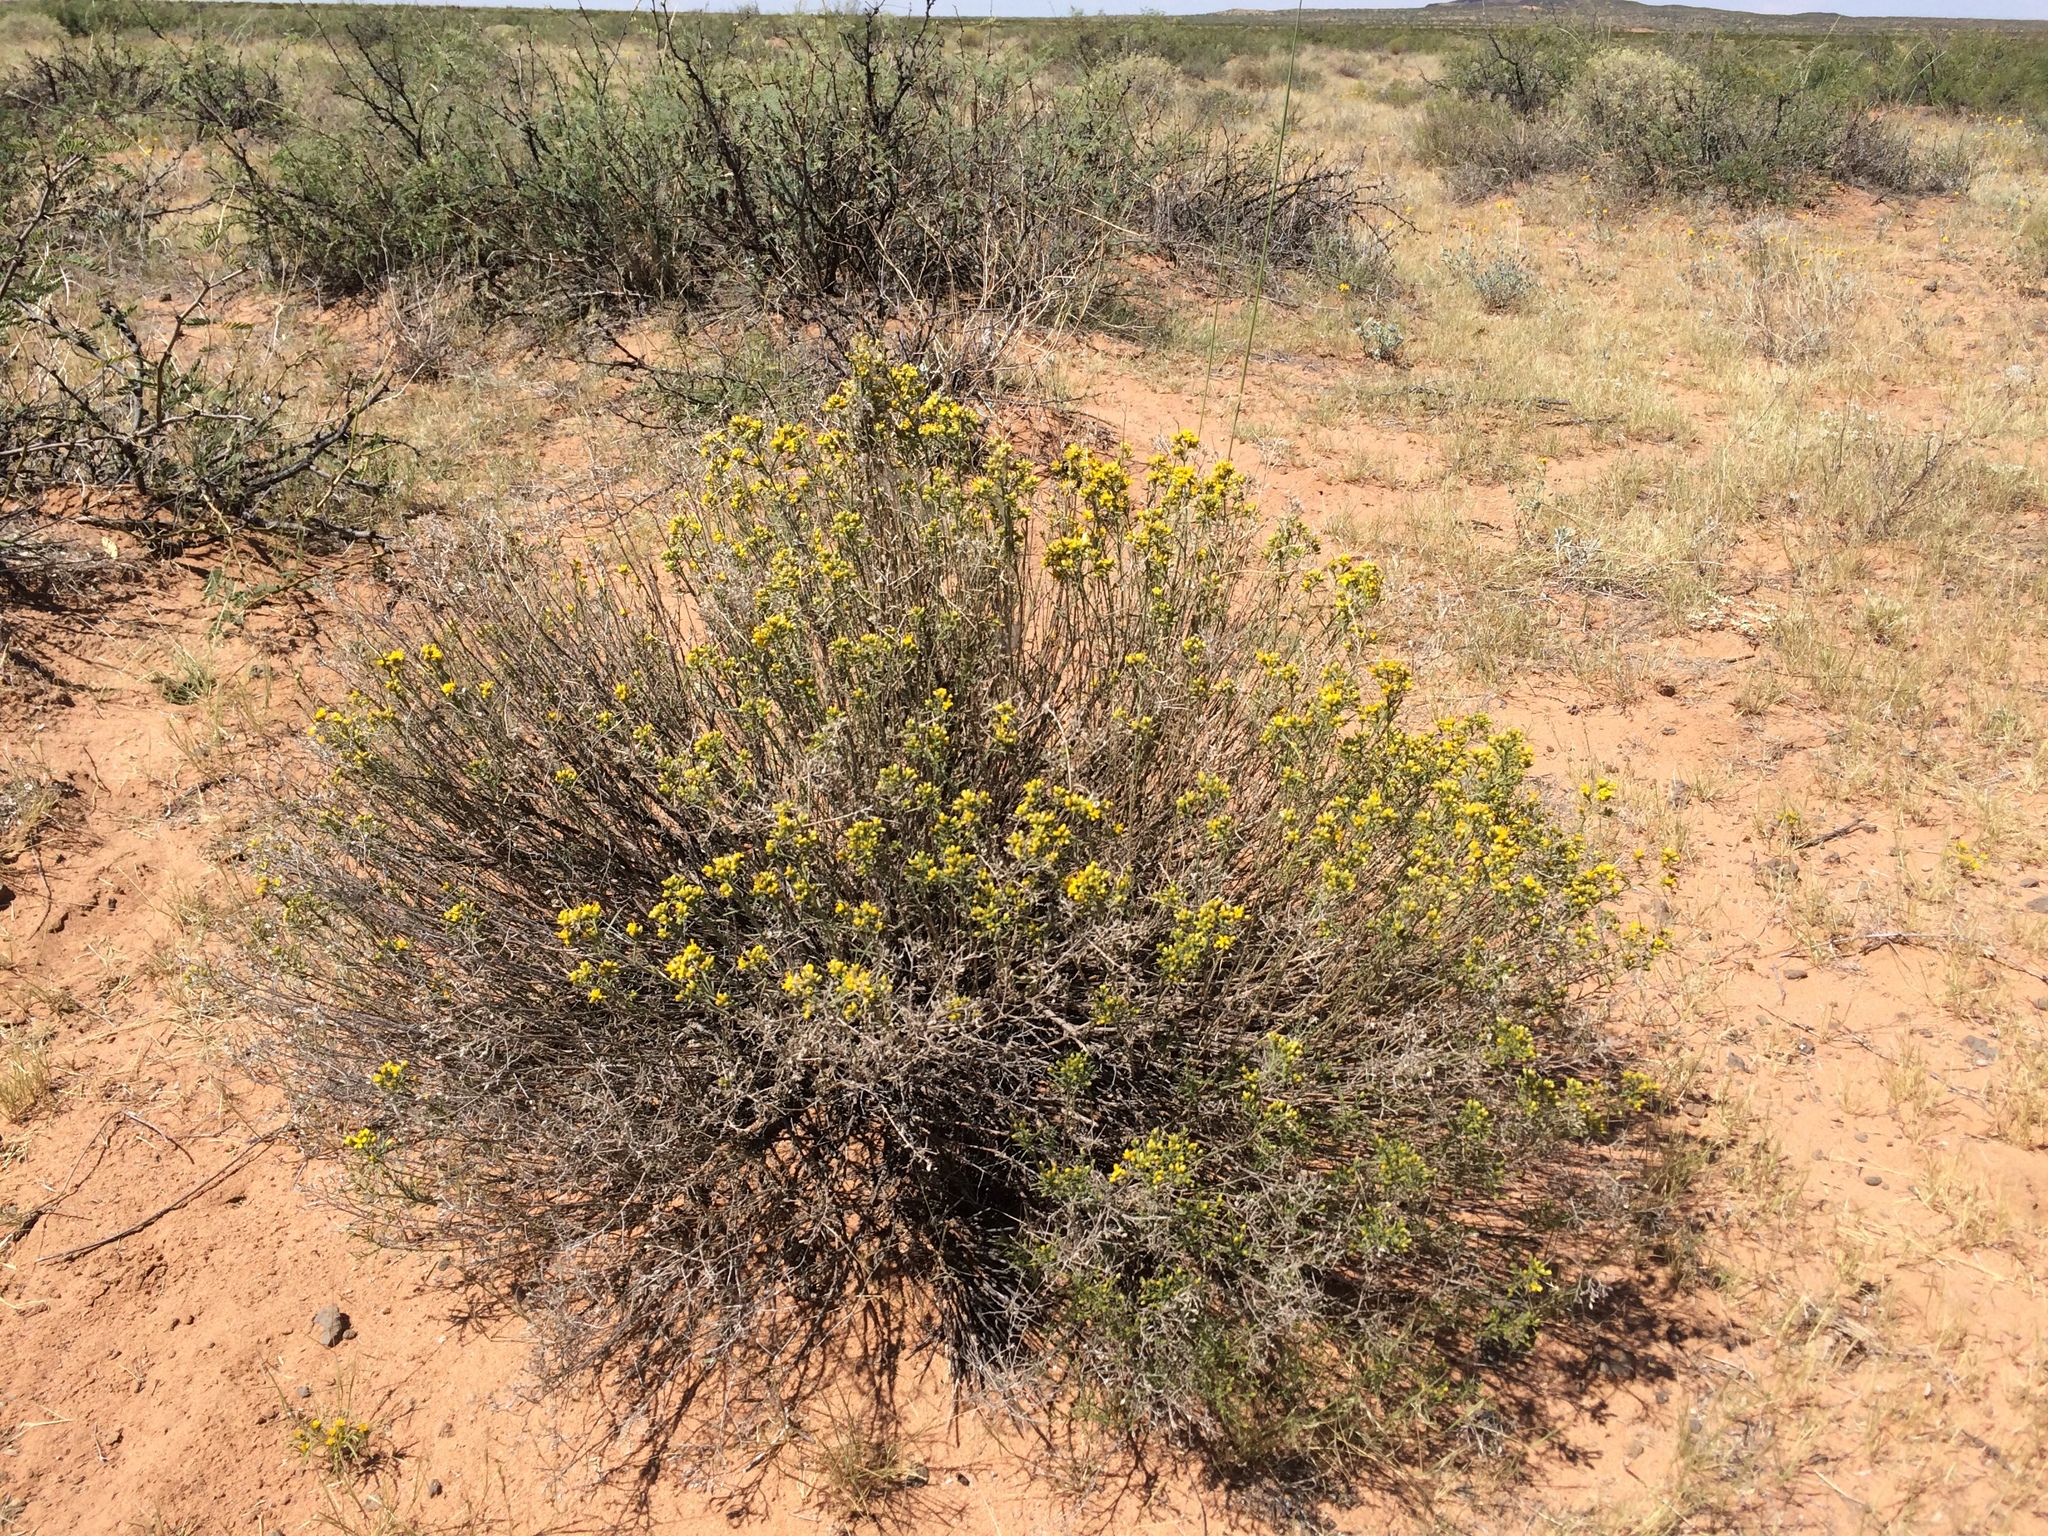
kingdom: Plantae
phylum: Tracheophyta
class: Magnoliopsida
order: Asterales
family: Asteraceae
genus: Gutierrezia
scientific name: Gutierrezia sarothrae
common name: Broom snakeweed
